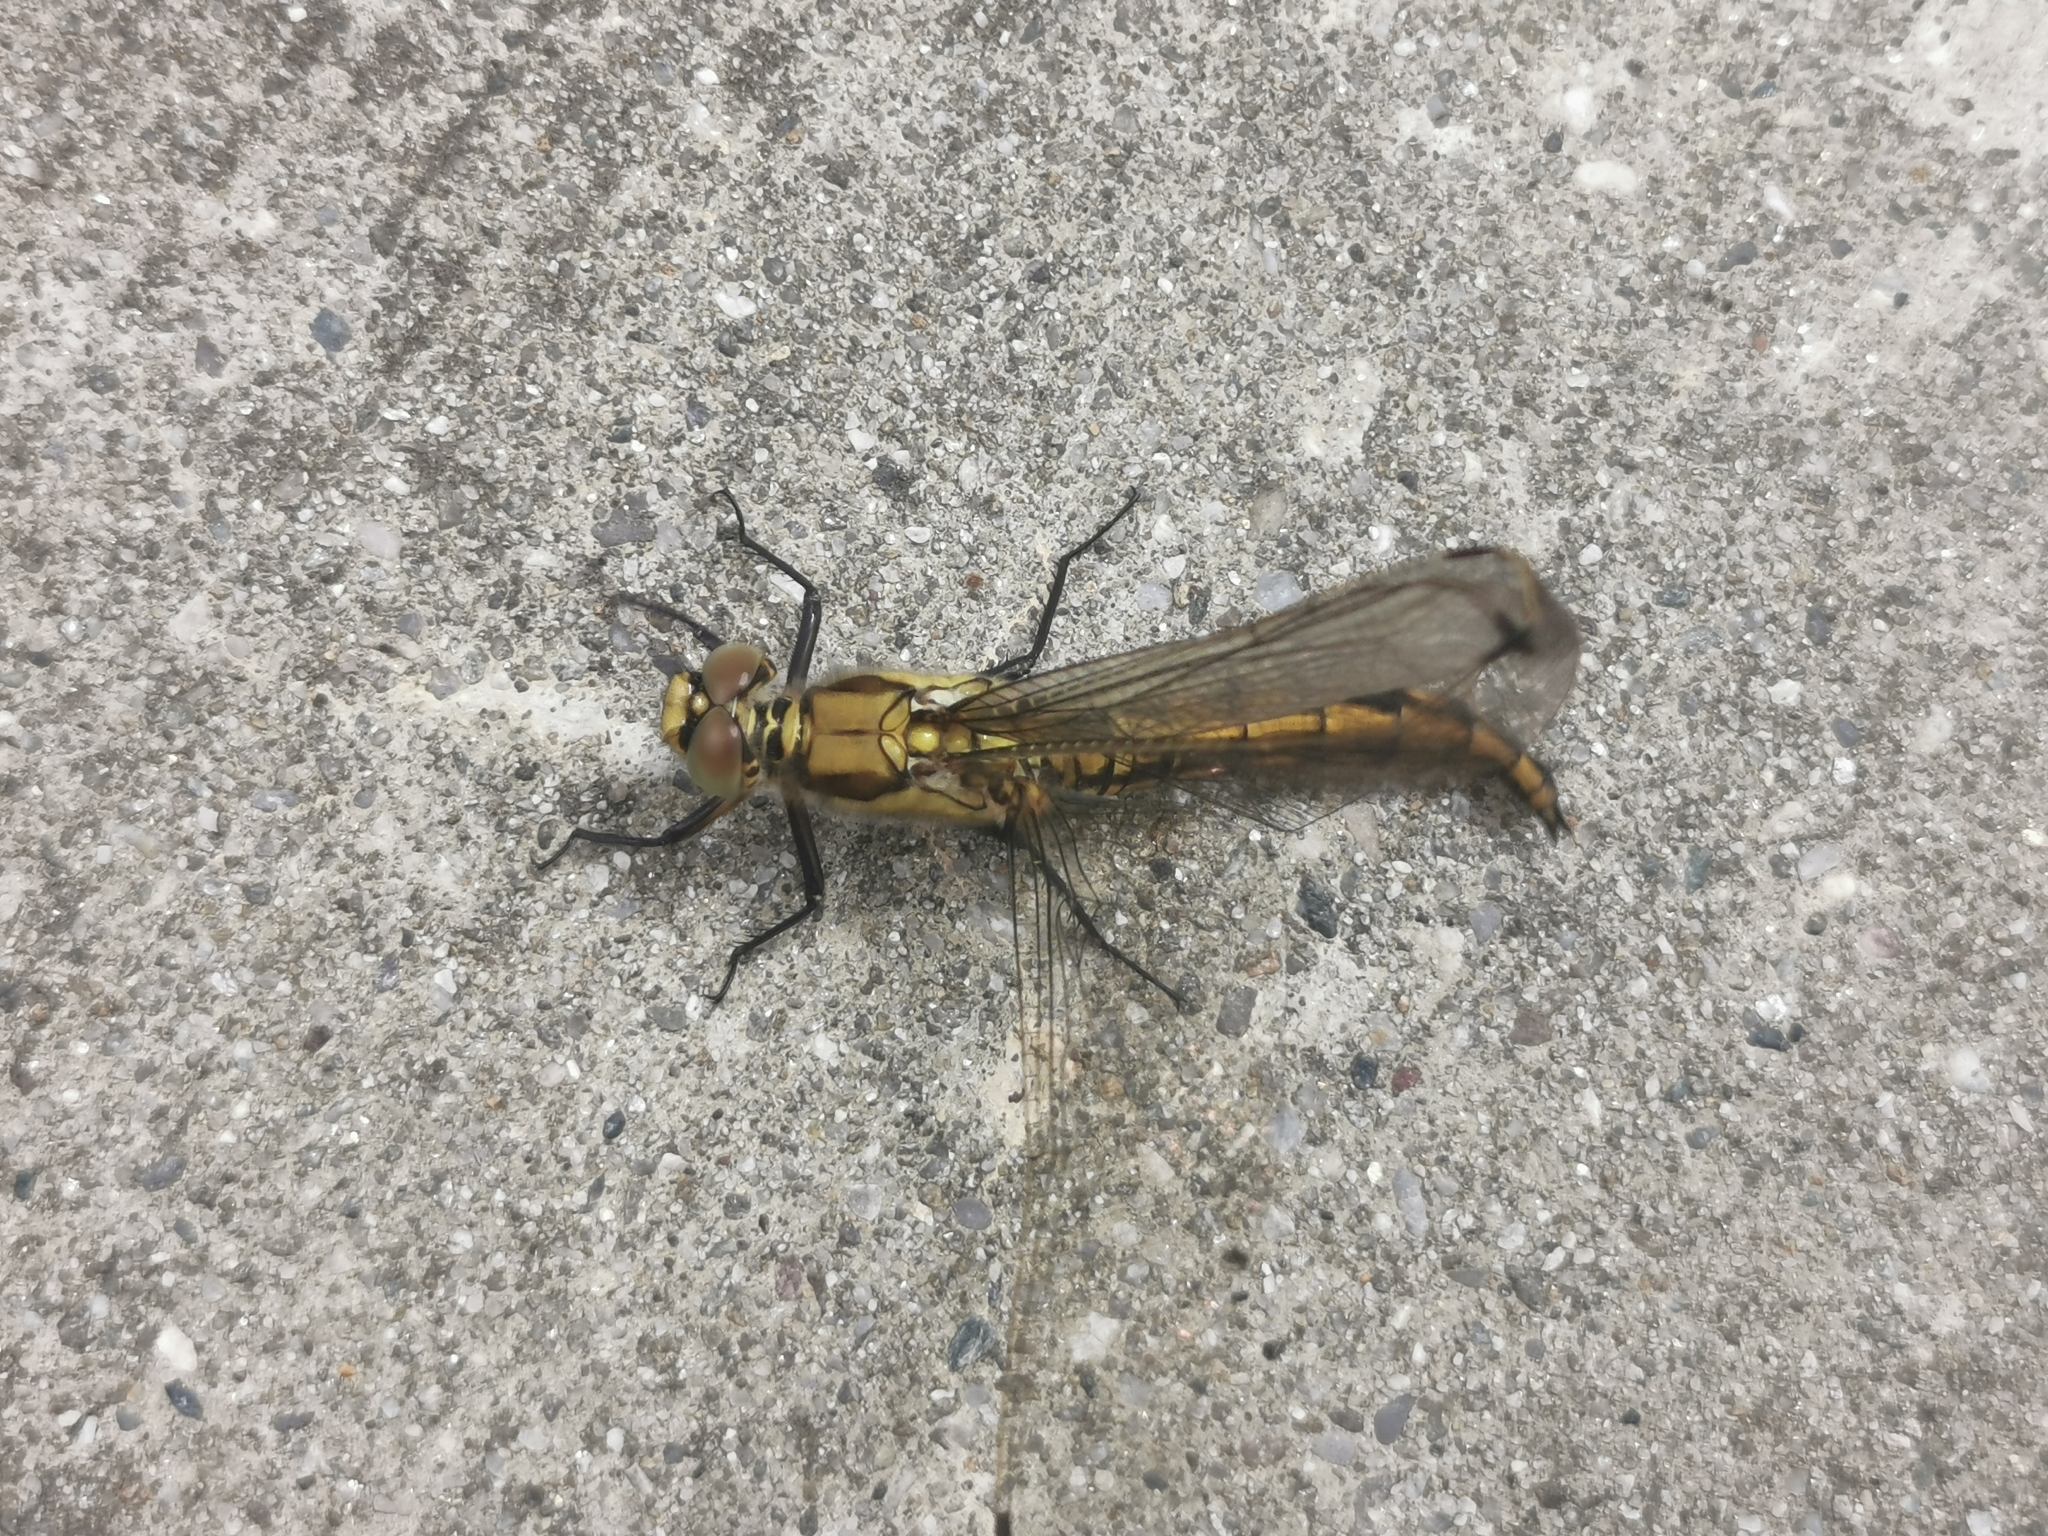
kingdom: Animalia
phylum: Arthropoda
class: Insecta
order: Odonata
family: Libellulidae
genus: Orthetrum
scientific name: Orthetrum cancellatum
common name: Black-tailed skimmer
